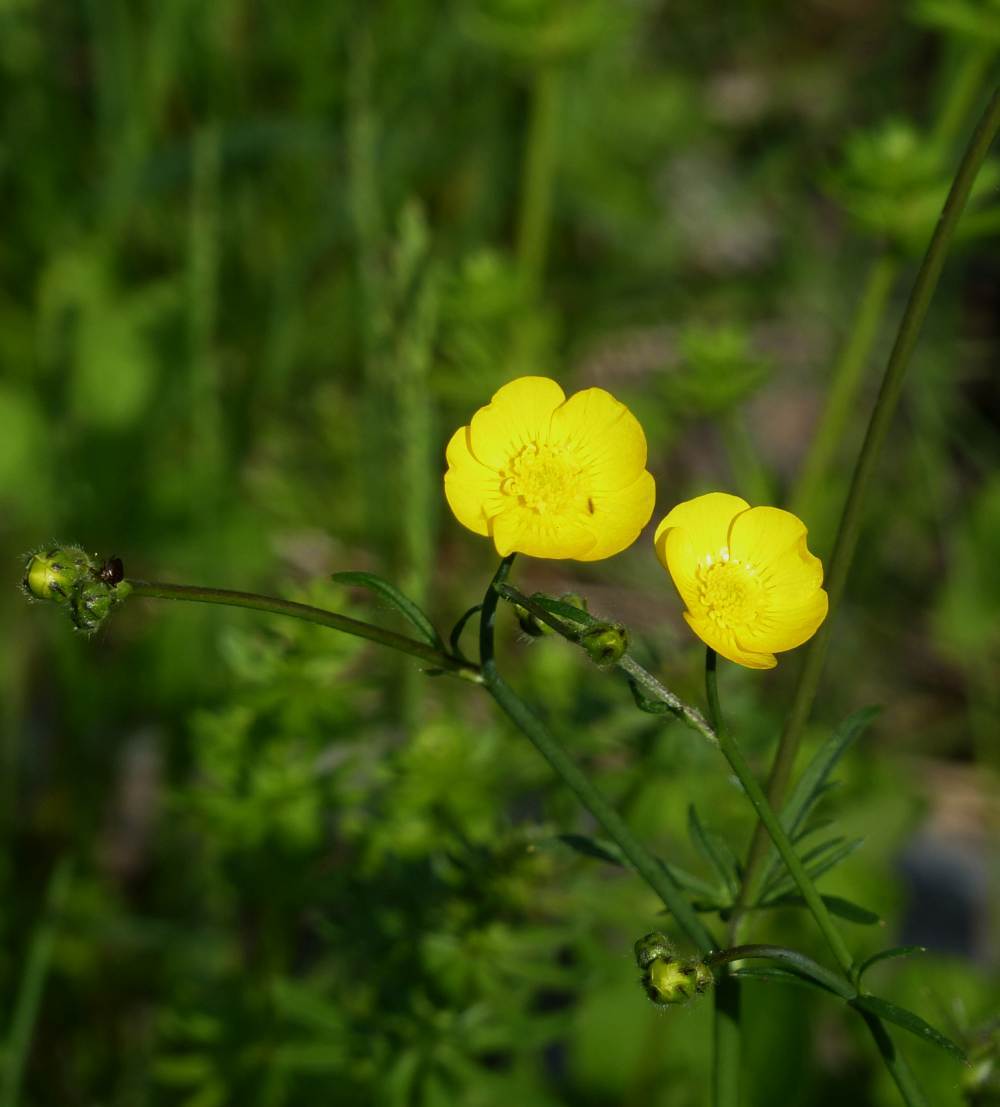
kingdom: Plantae
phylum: Tracheophyta
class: Magnoliopsida
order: Ranunculales
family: Ranunculaceae
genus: Ranunculus
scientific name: Ranunculus acris
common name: Meadow buttercup
